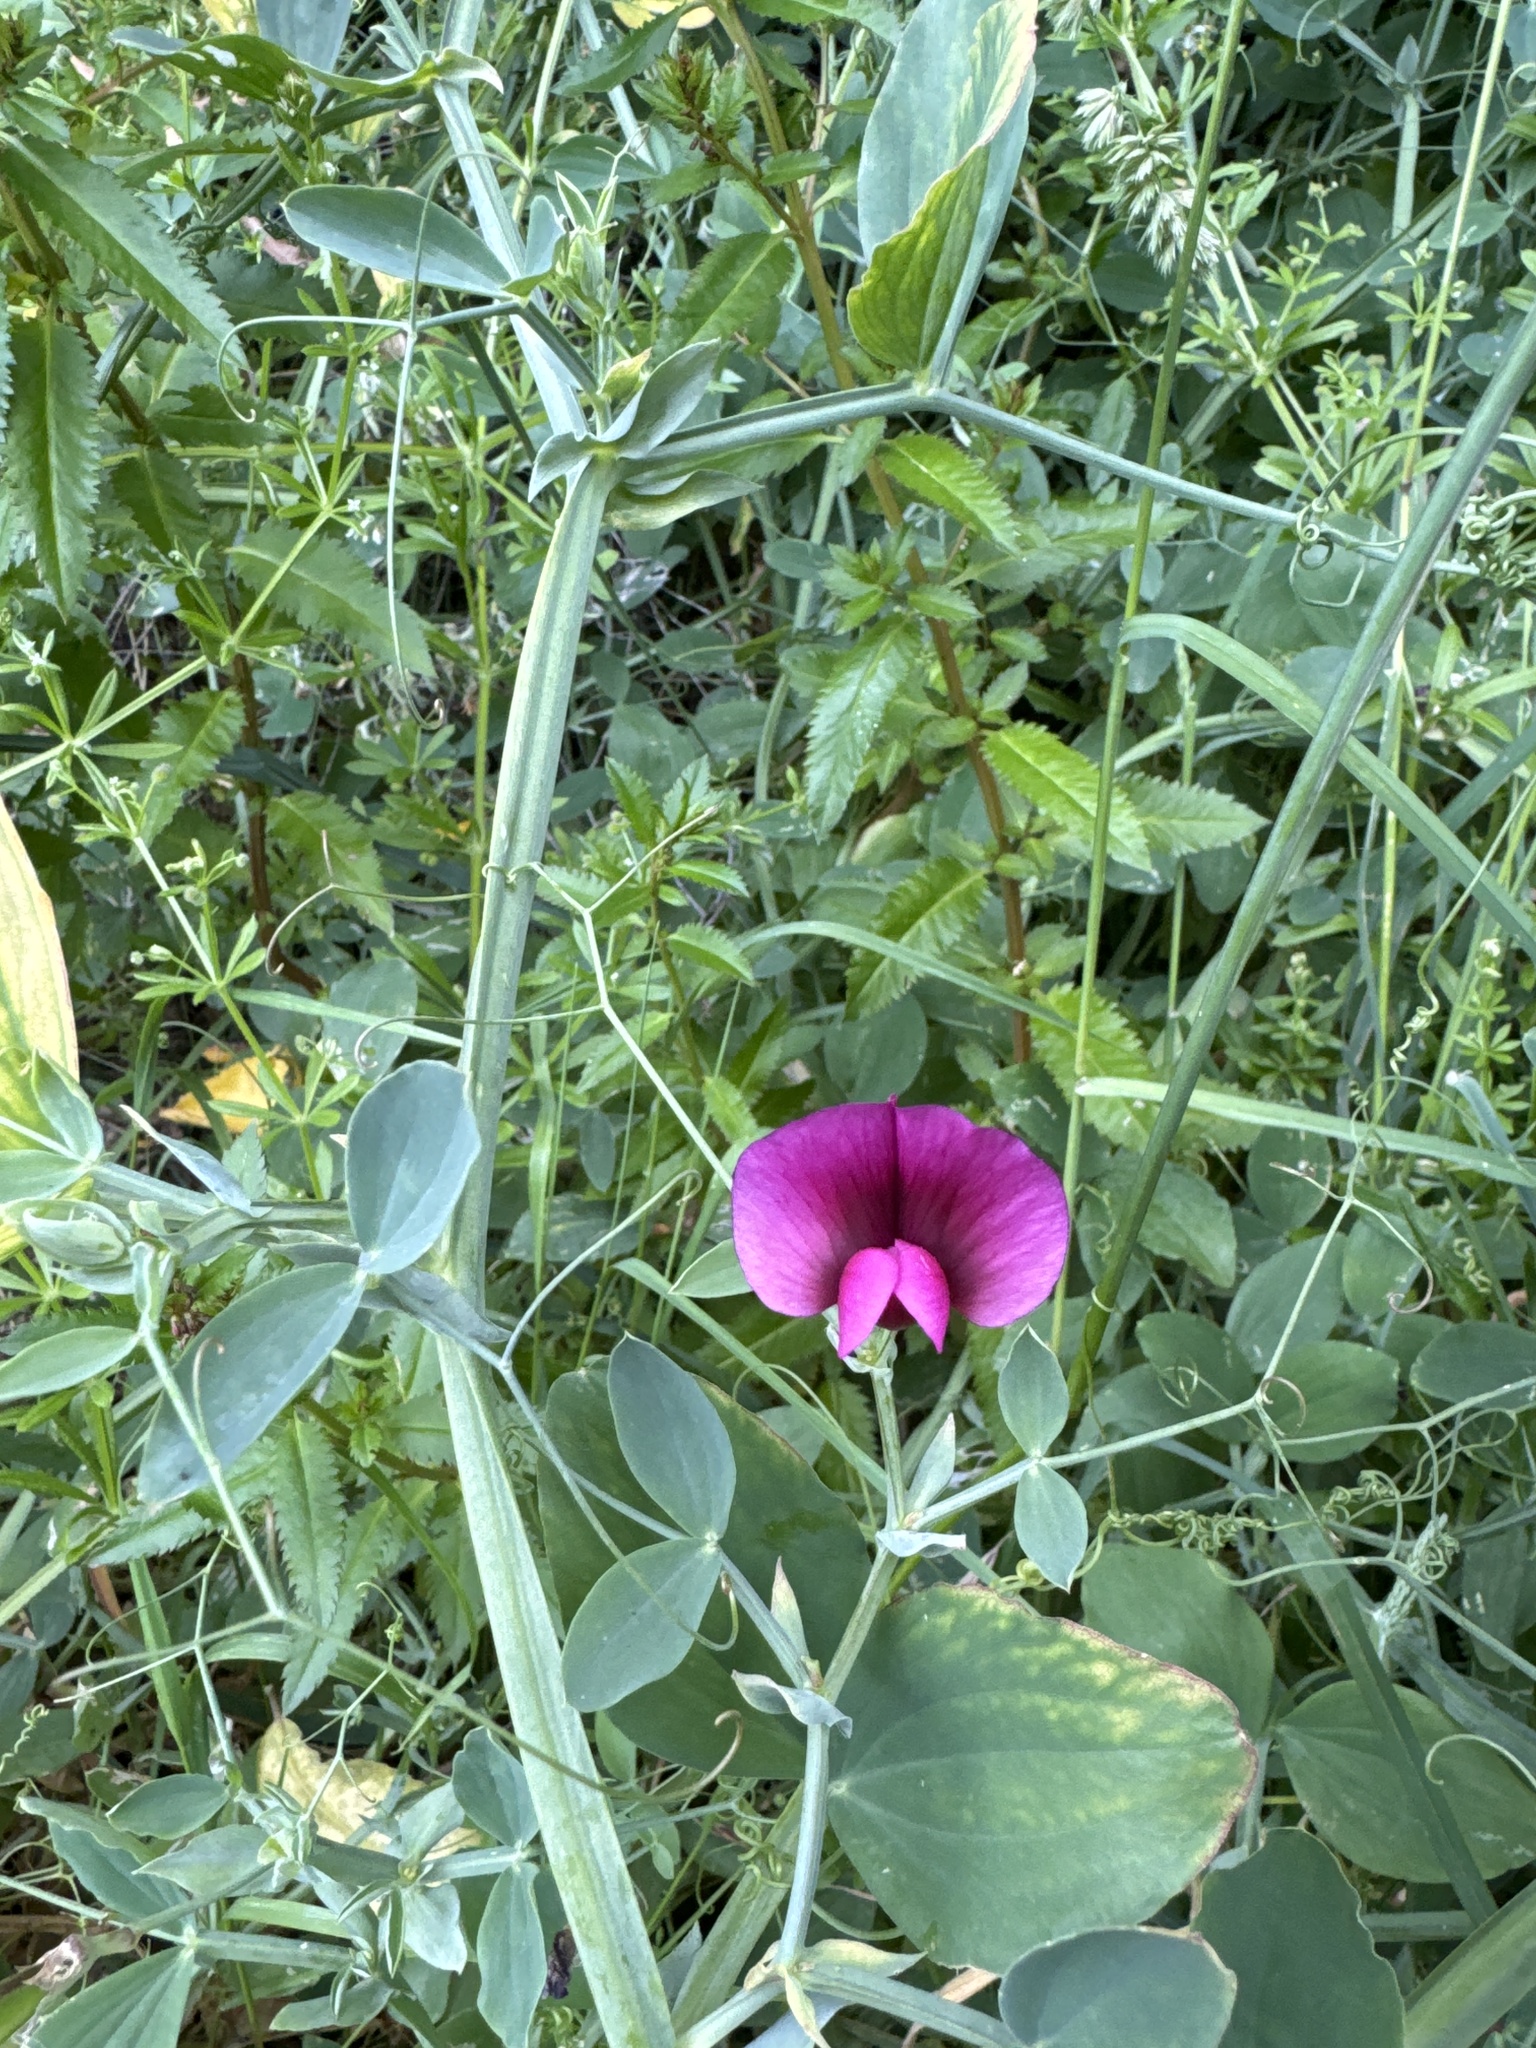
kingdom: Plantae
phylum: Tracheophyta
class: Magnoliopsida
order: Fabales
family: Fabaceae
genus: Lathyrus
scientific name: Lathyrus tingitanus
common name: Tangier pea
